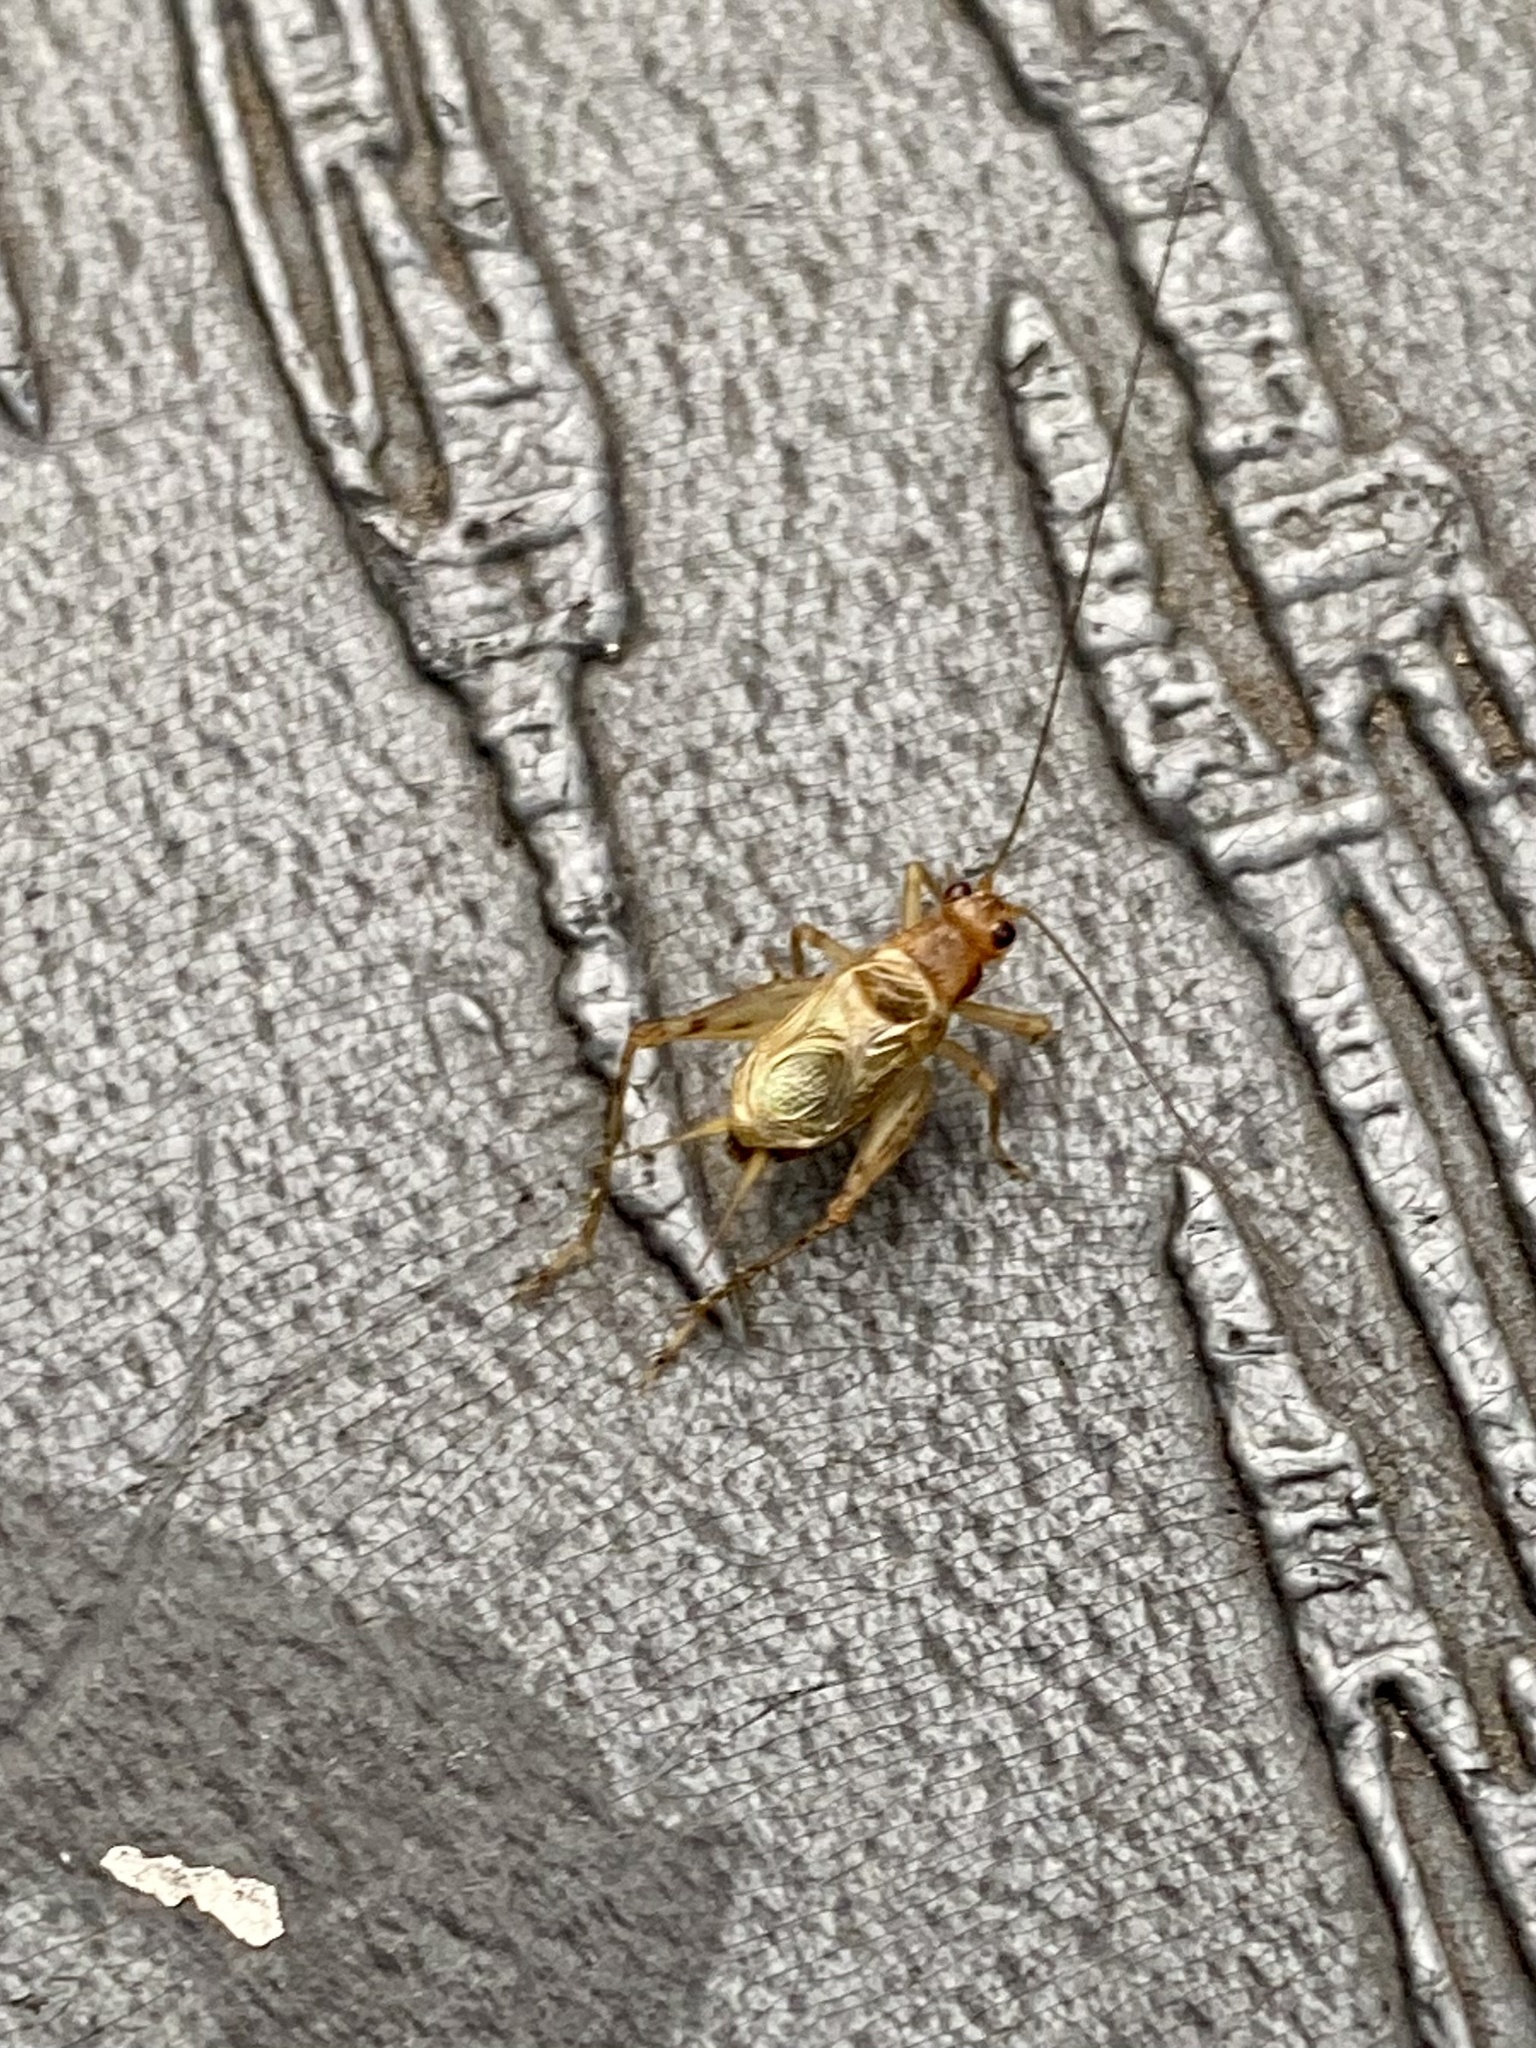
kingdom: Animalia
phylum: Arthropoda
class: Insecta
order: Orthoptera
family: Trigonidiidae
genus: Anaxipha
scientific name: Anaxipha exigua
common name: Say's bush cricket
